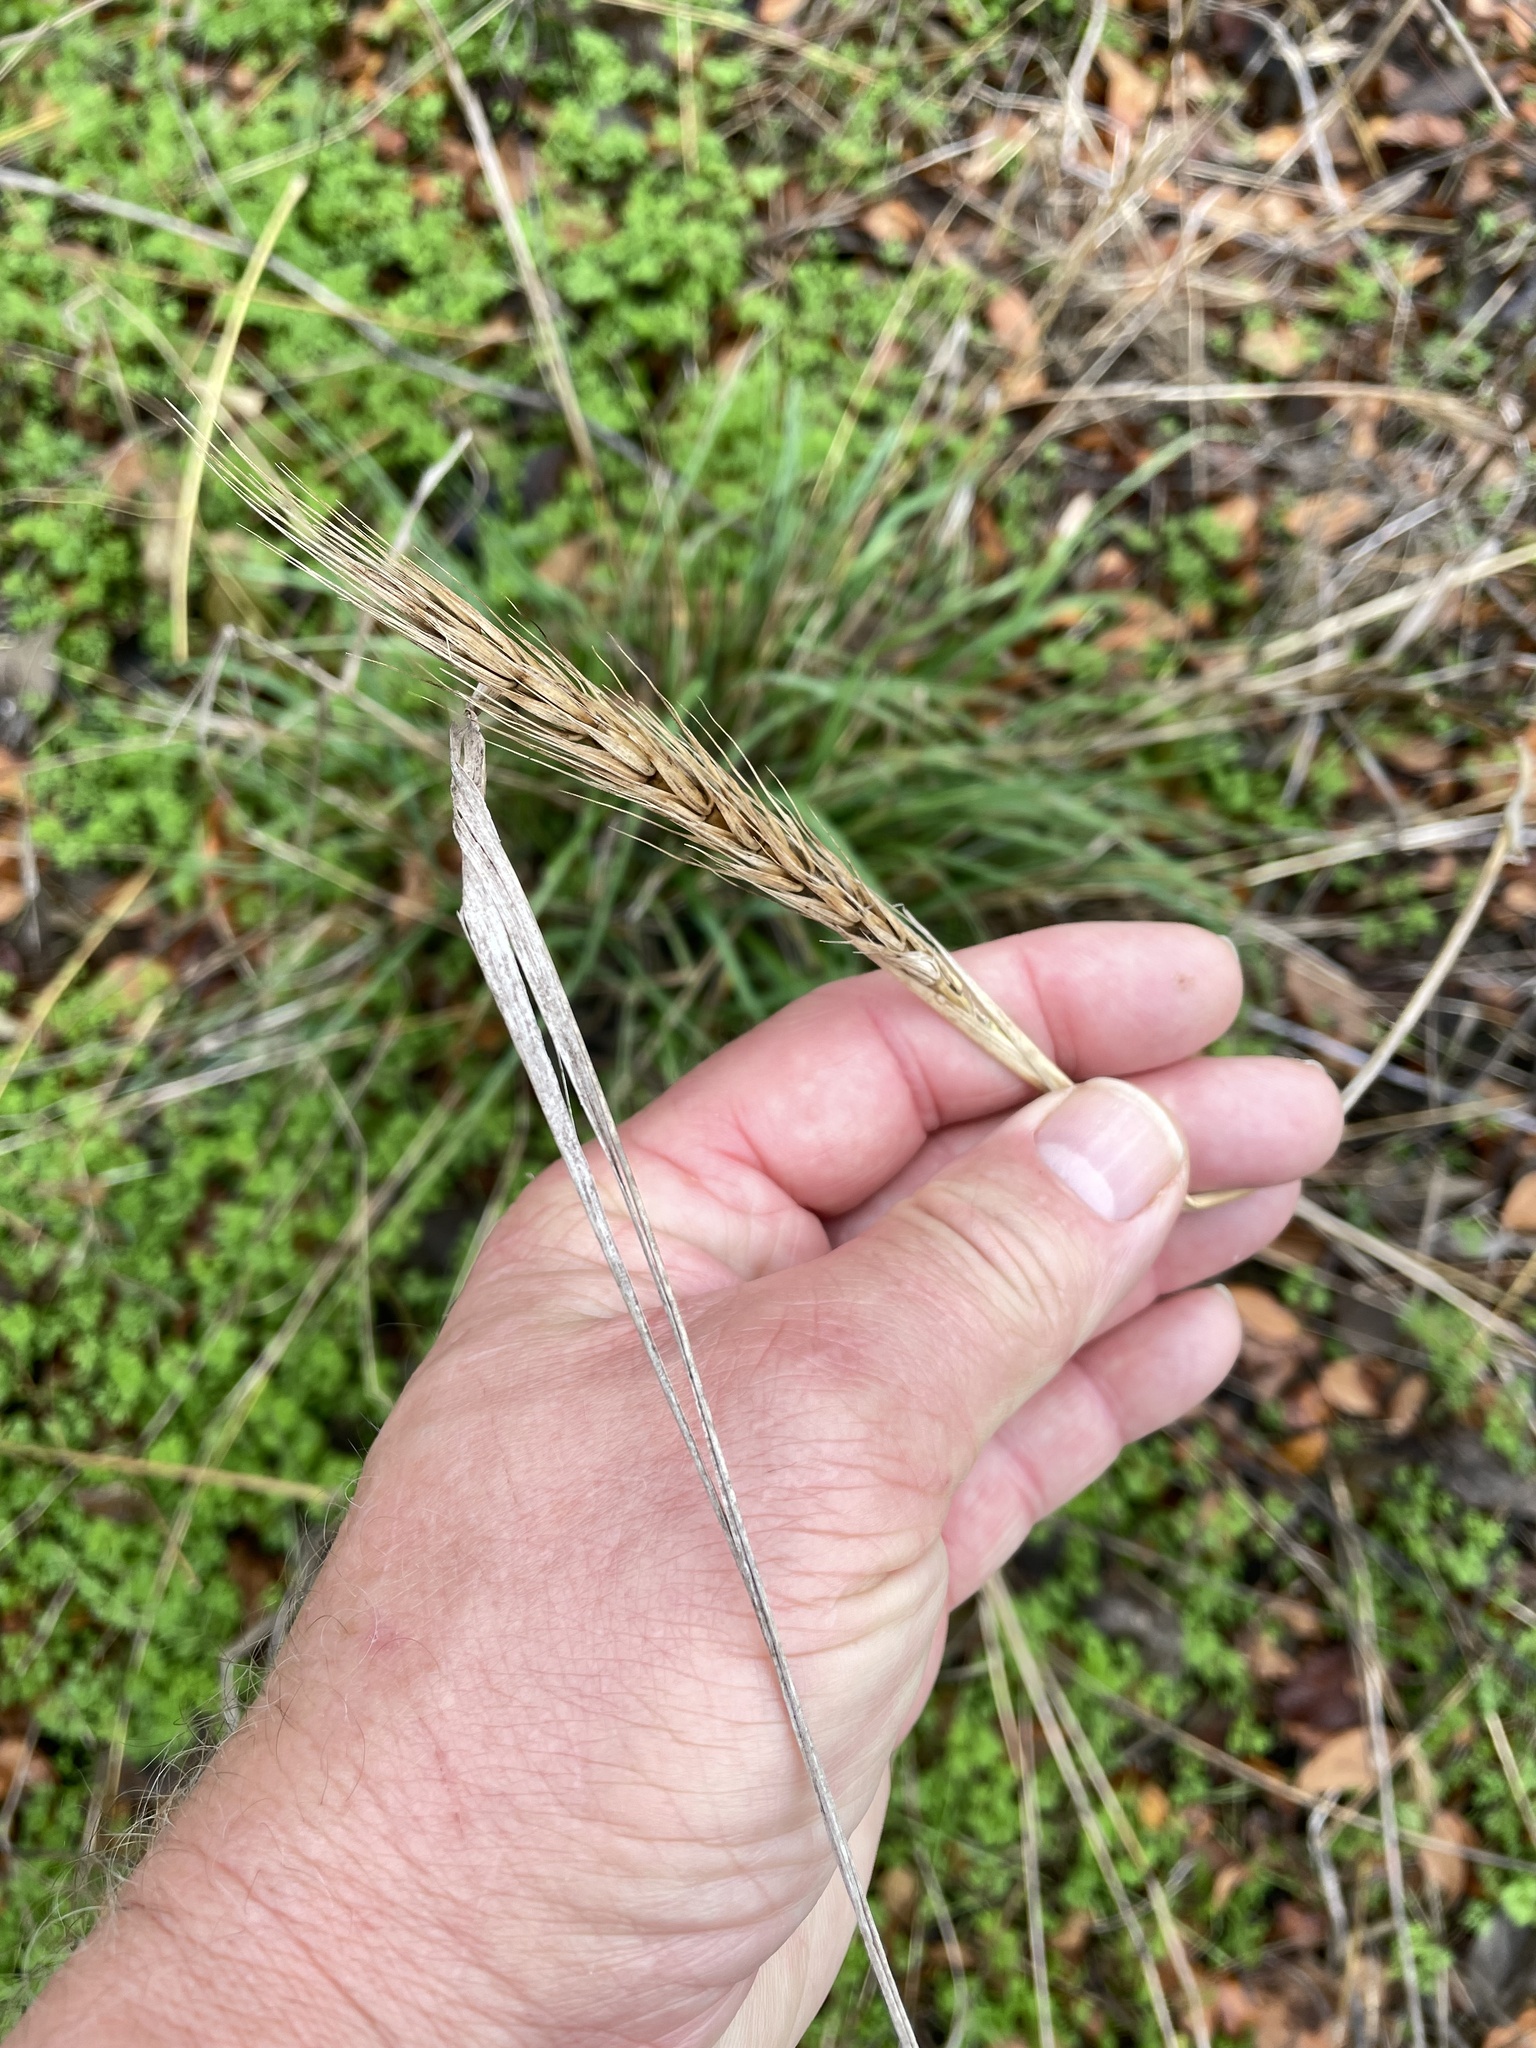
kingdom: Plantae
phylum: Tracheophyta
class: Liliopsida
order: Poales
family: Poaceae
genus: Elymus
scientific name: Elymus virginicus
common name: Common eastern wildrye
